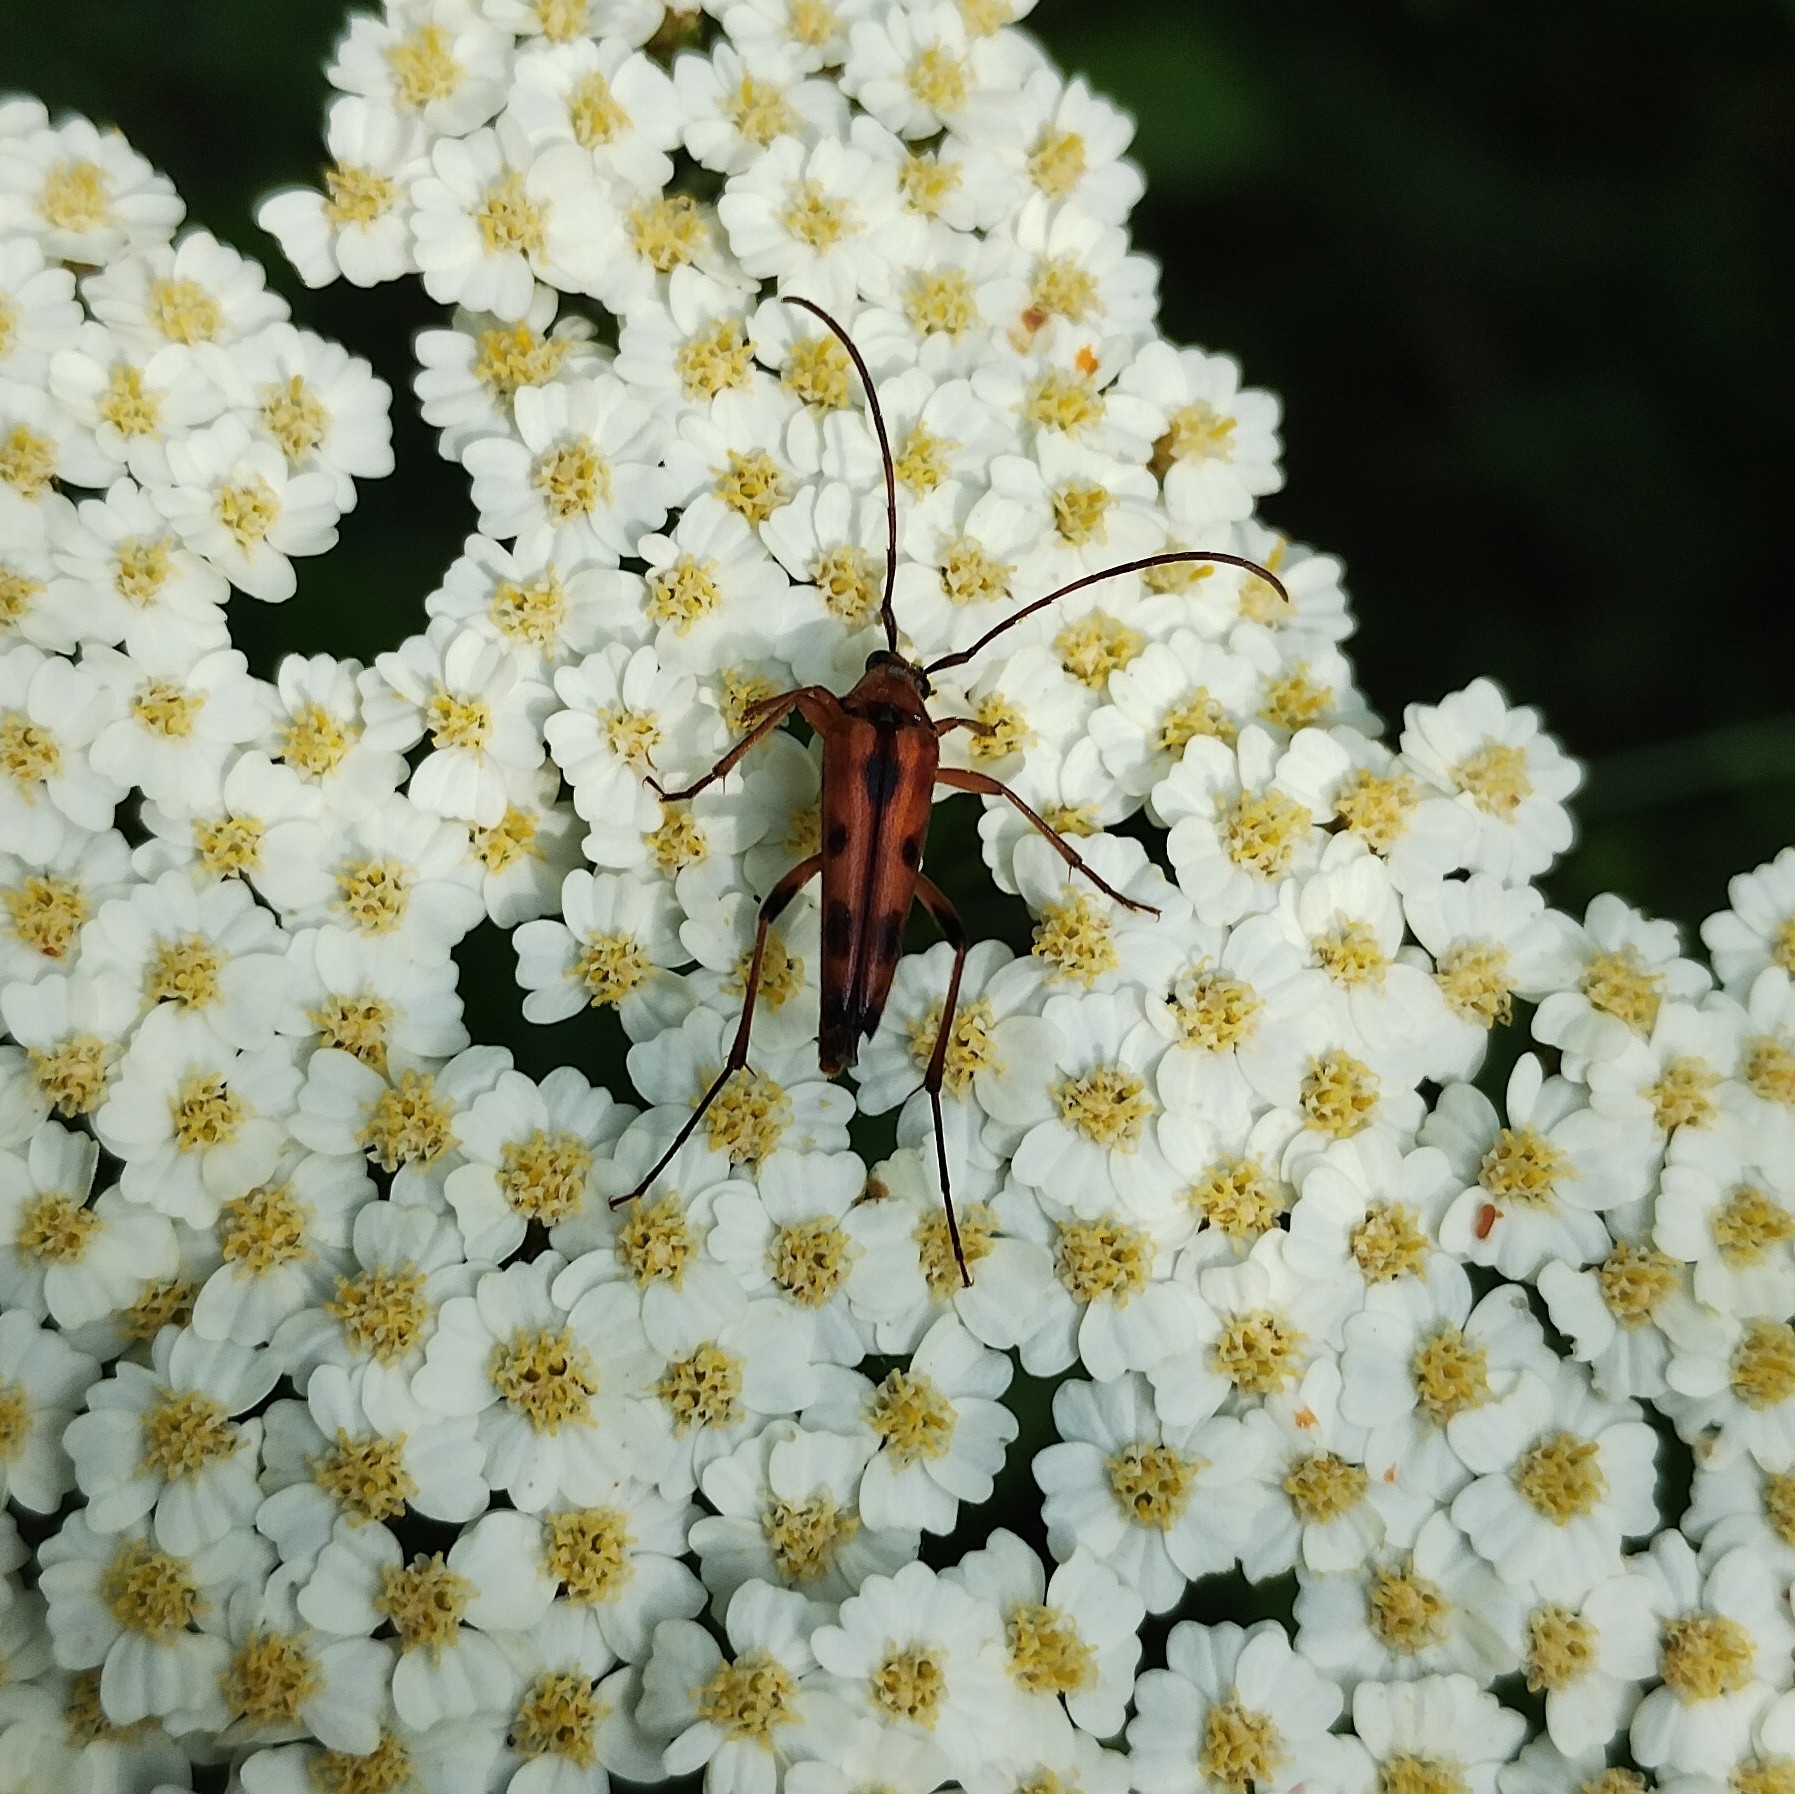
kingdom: Animalia
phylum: Arthropoda
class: Insecta
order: Coleoptera
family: Cerambycidae
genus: Stenurella
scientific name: Stenurella septempunctata
